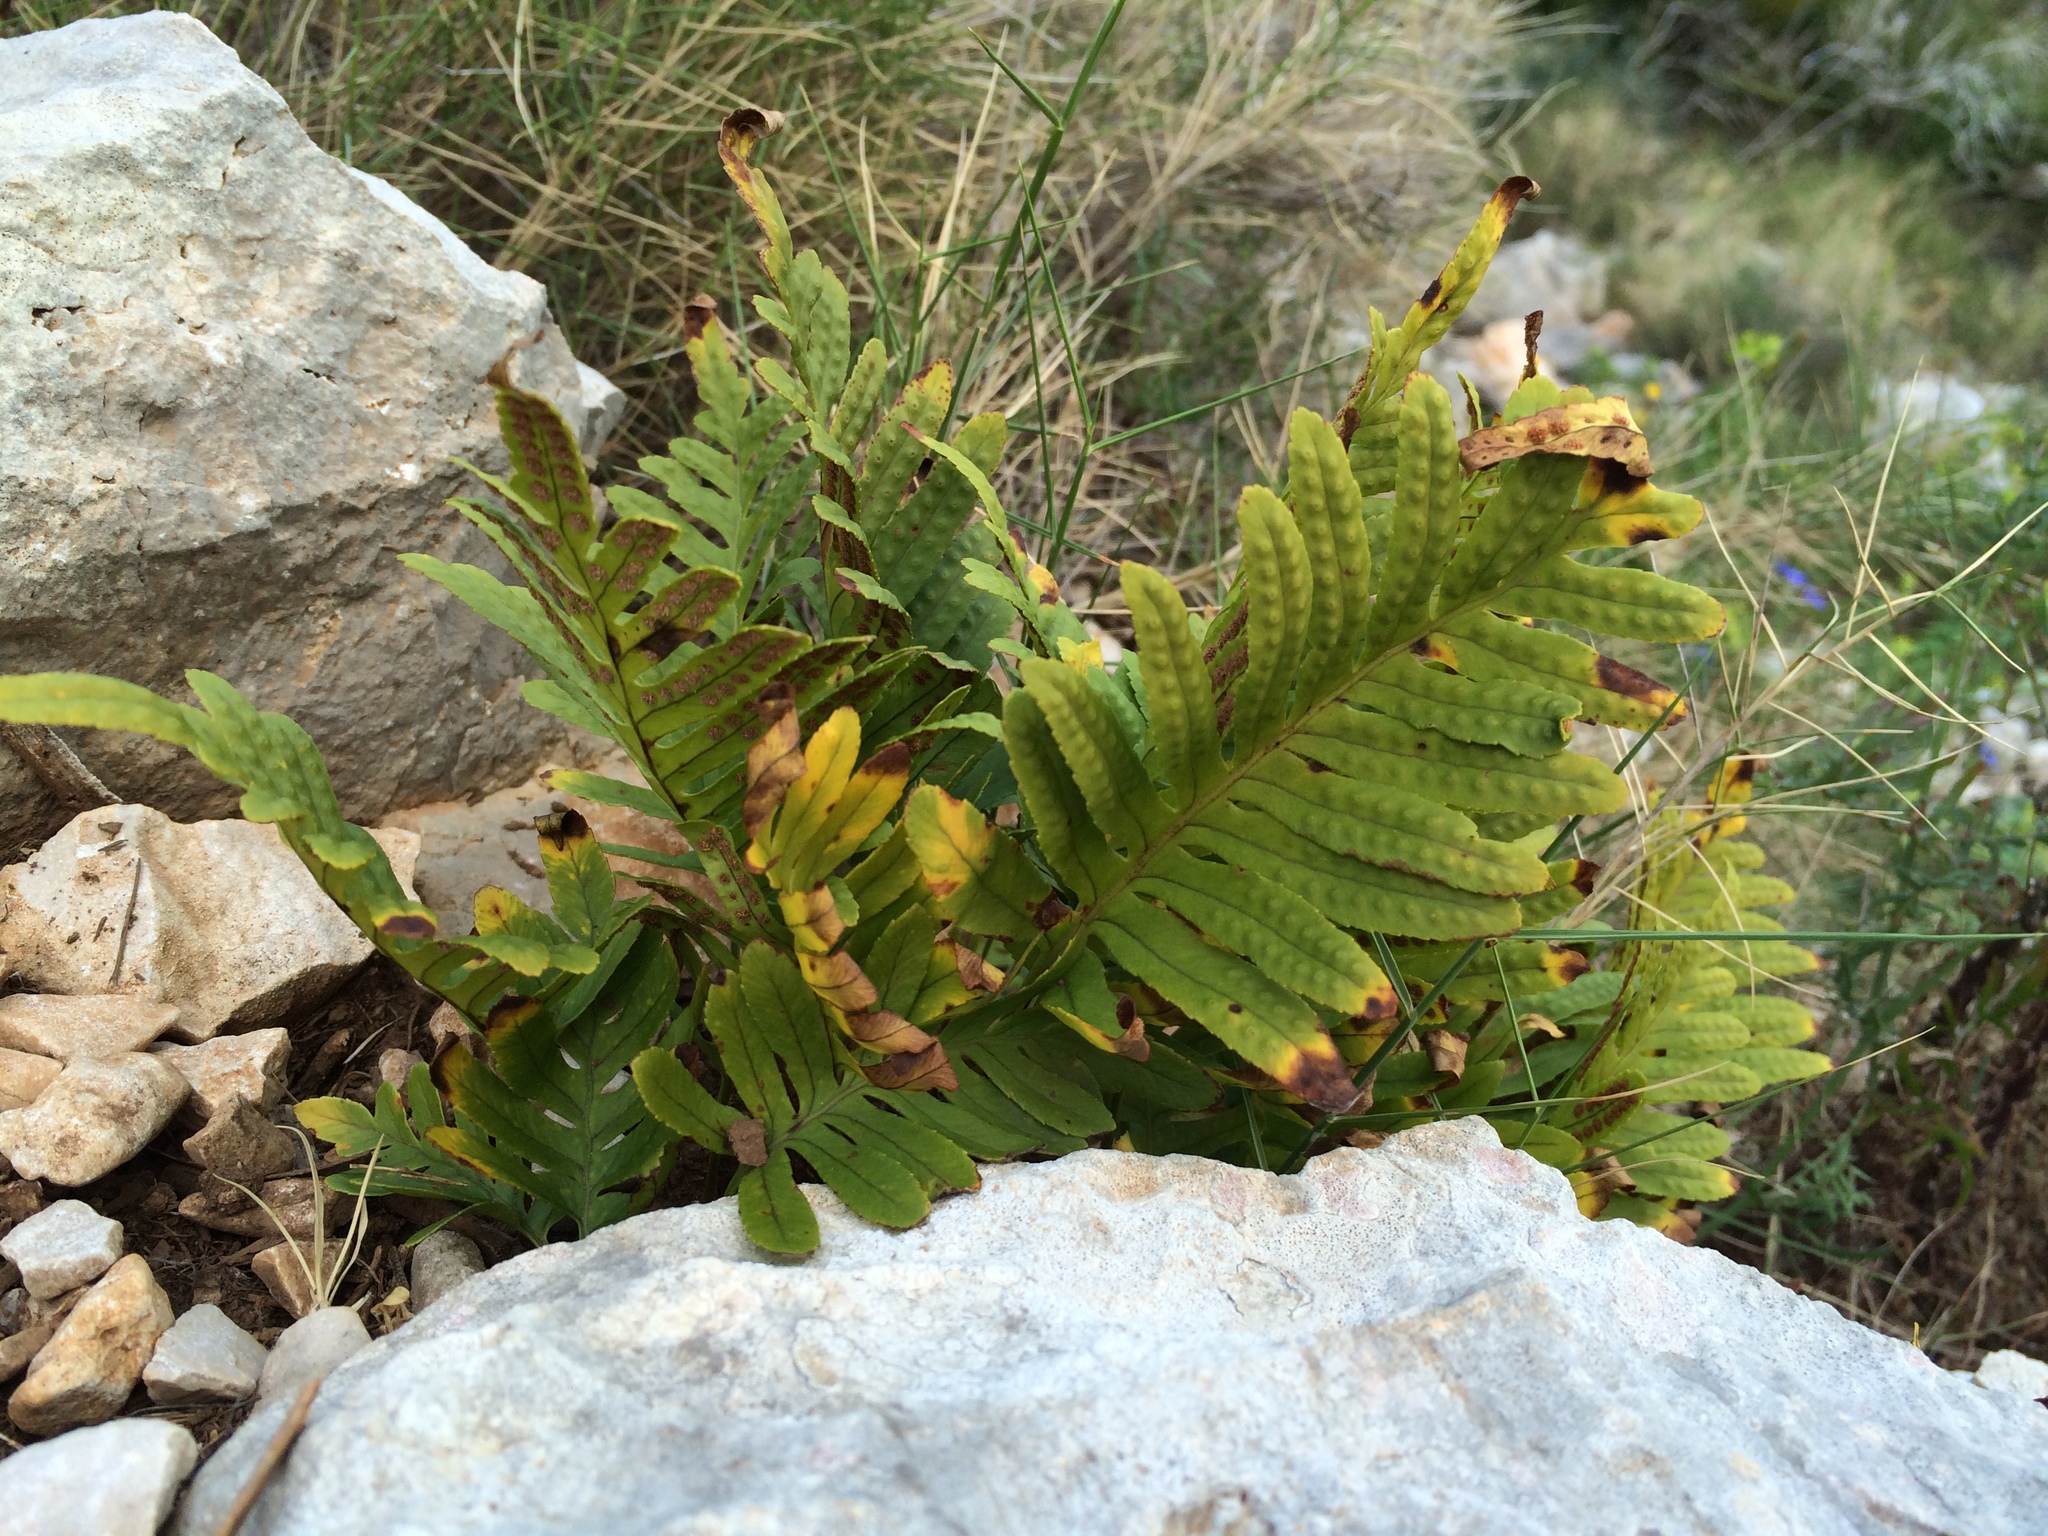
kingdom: Plantae
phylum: Tracheophyta
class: Polypodiopsida
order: Polypodiales
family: Polypodiaceae
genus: Polypodium
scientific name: Polypodium cambricum
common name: Southern polypody
